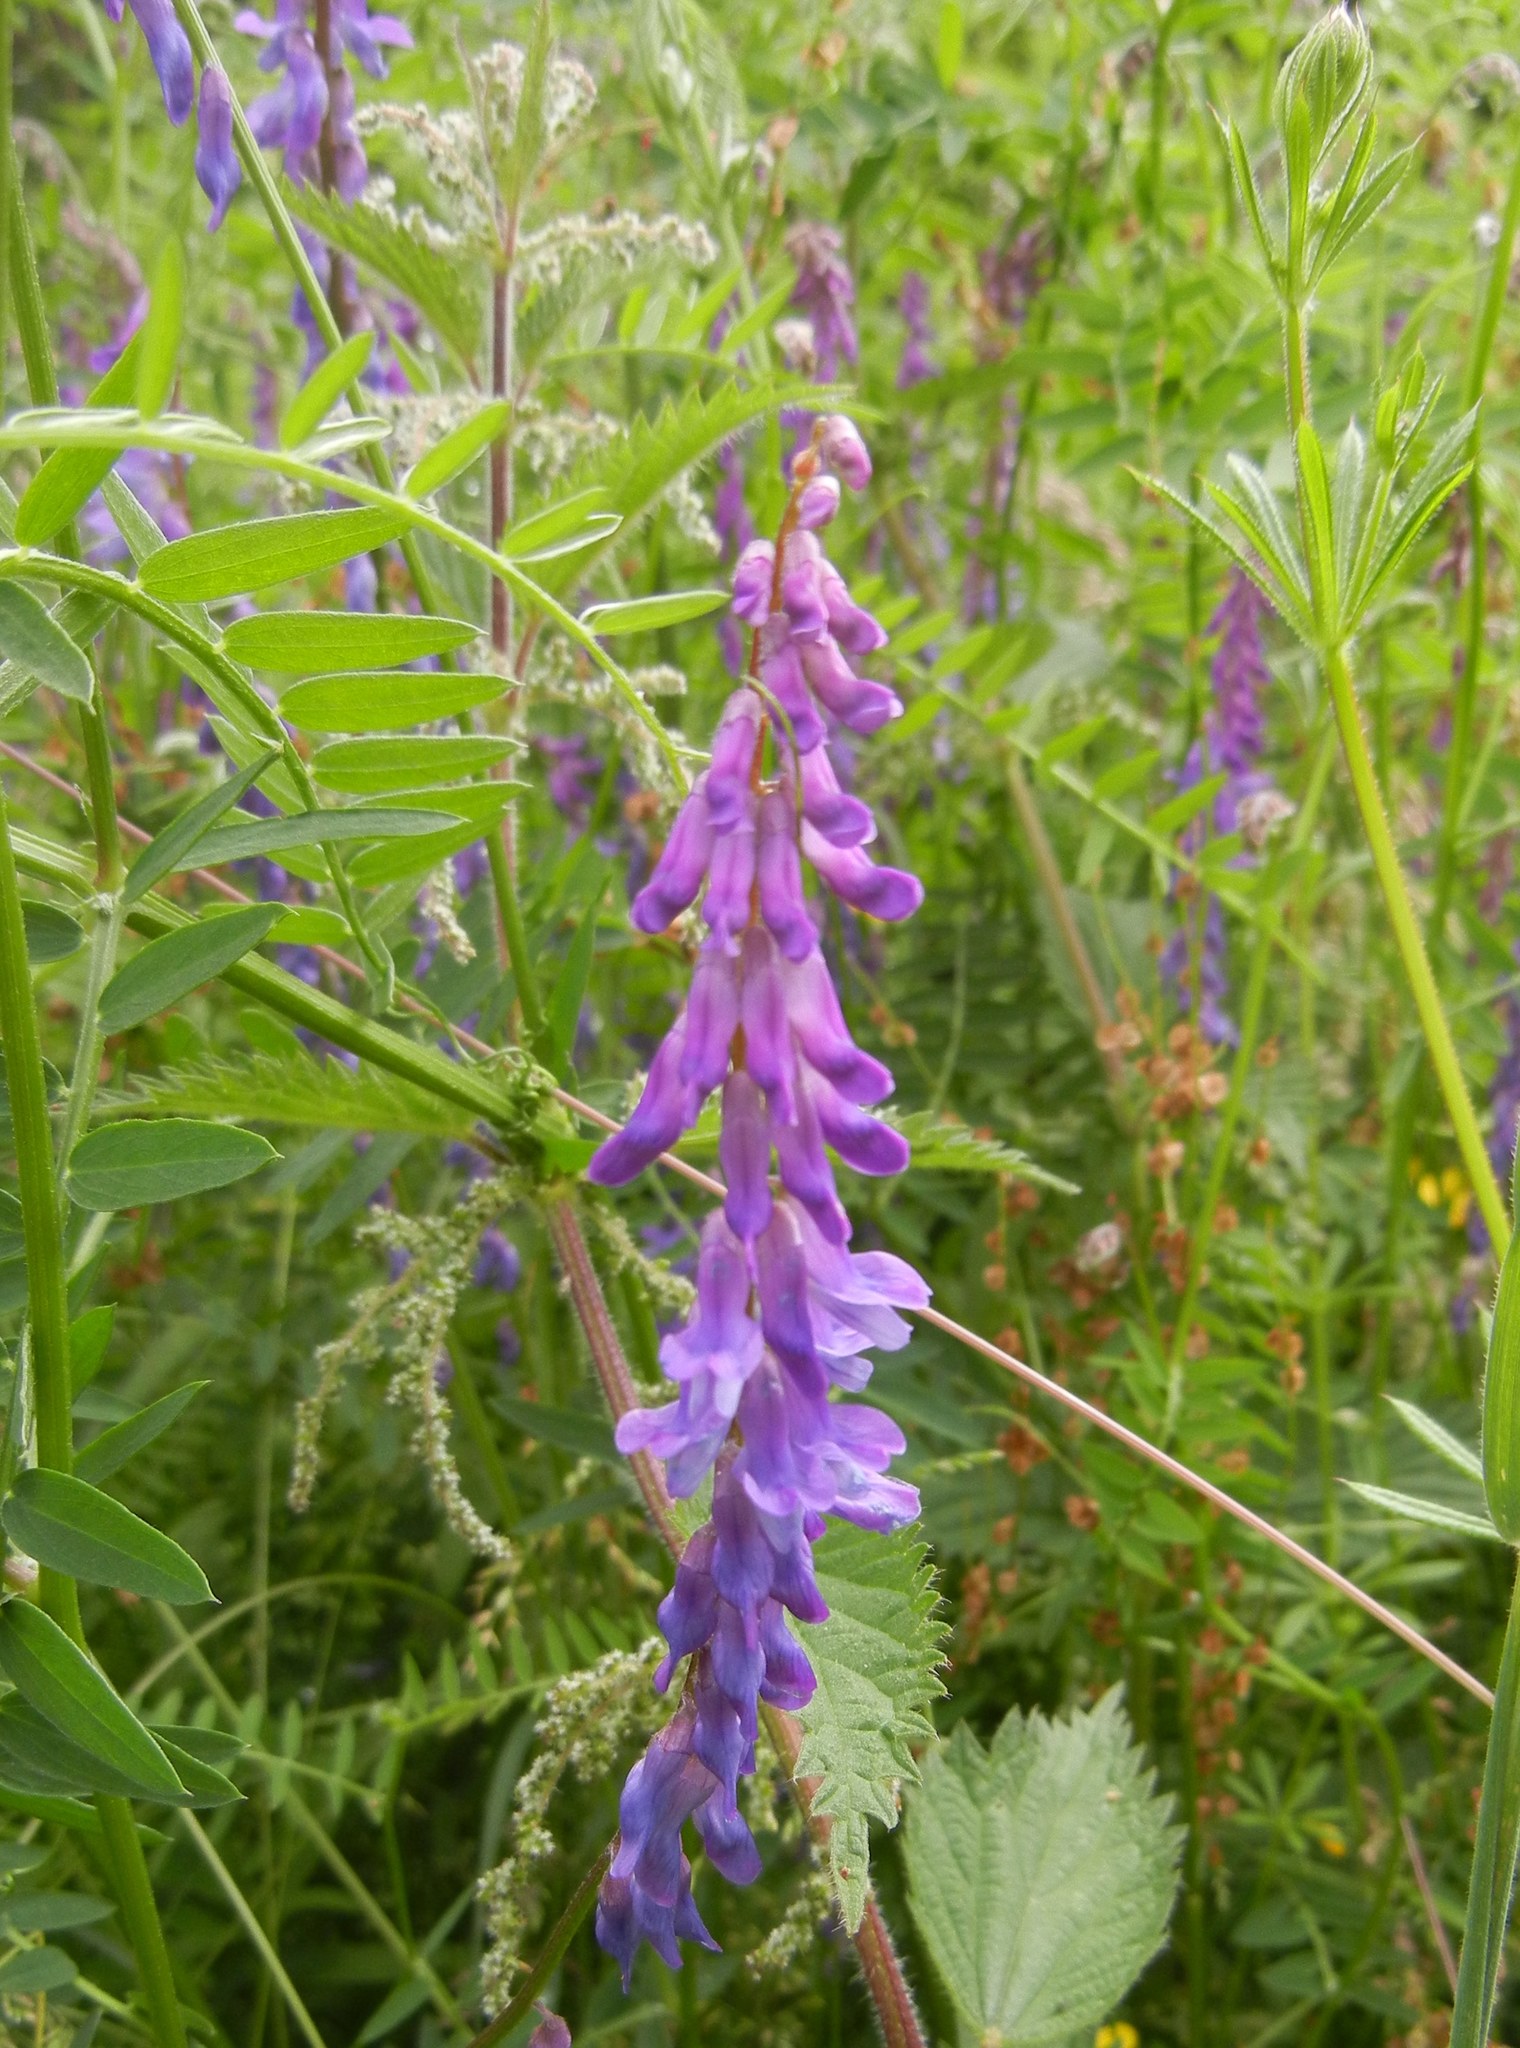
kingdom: Plantae
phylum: Tracheophyta
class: Magnoliopsida
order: Fabales
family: Fabaceae
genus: Vicia
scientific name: Vicia cracca
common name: Bird vetch
